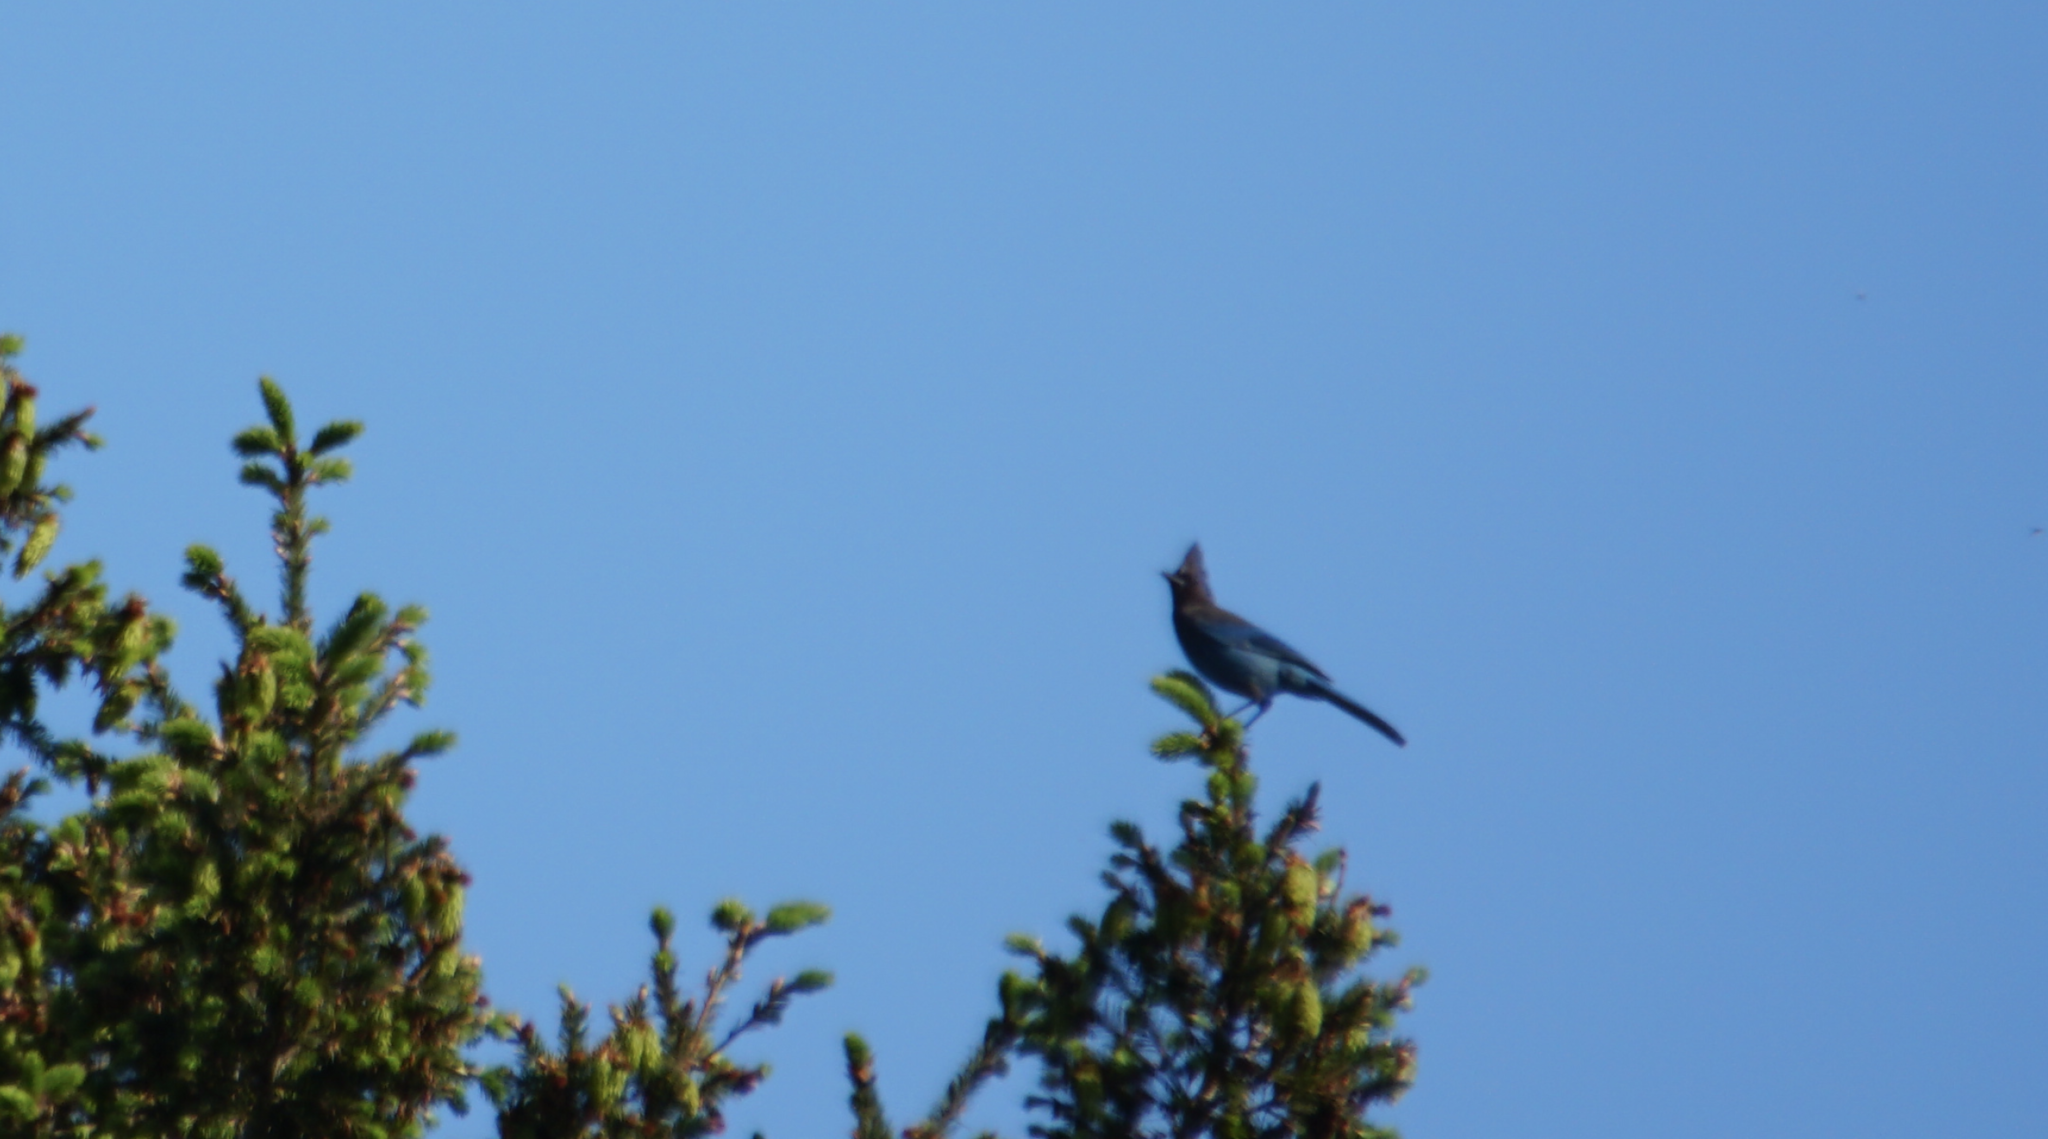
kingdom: Animalia
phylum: Chordata
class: Aves
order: Passeriformes
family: Corvidae
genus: Cyanocitta
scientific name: Cyanocitta stelleri
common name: Steller's jay
